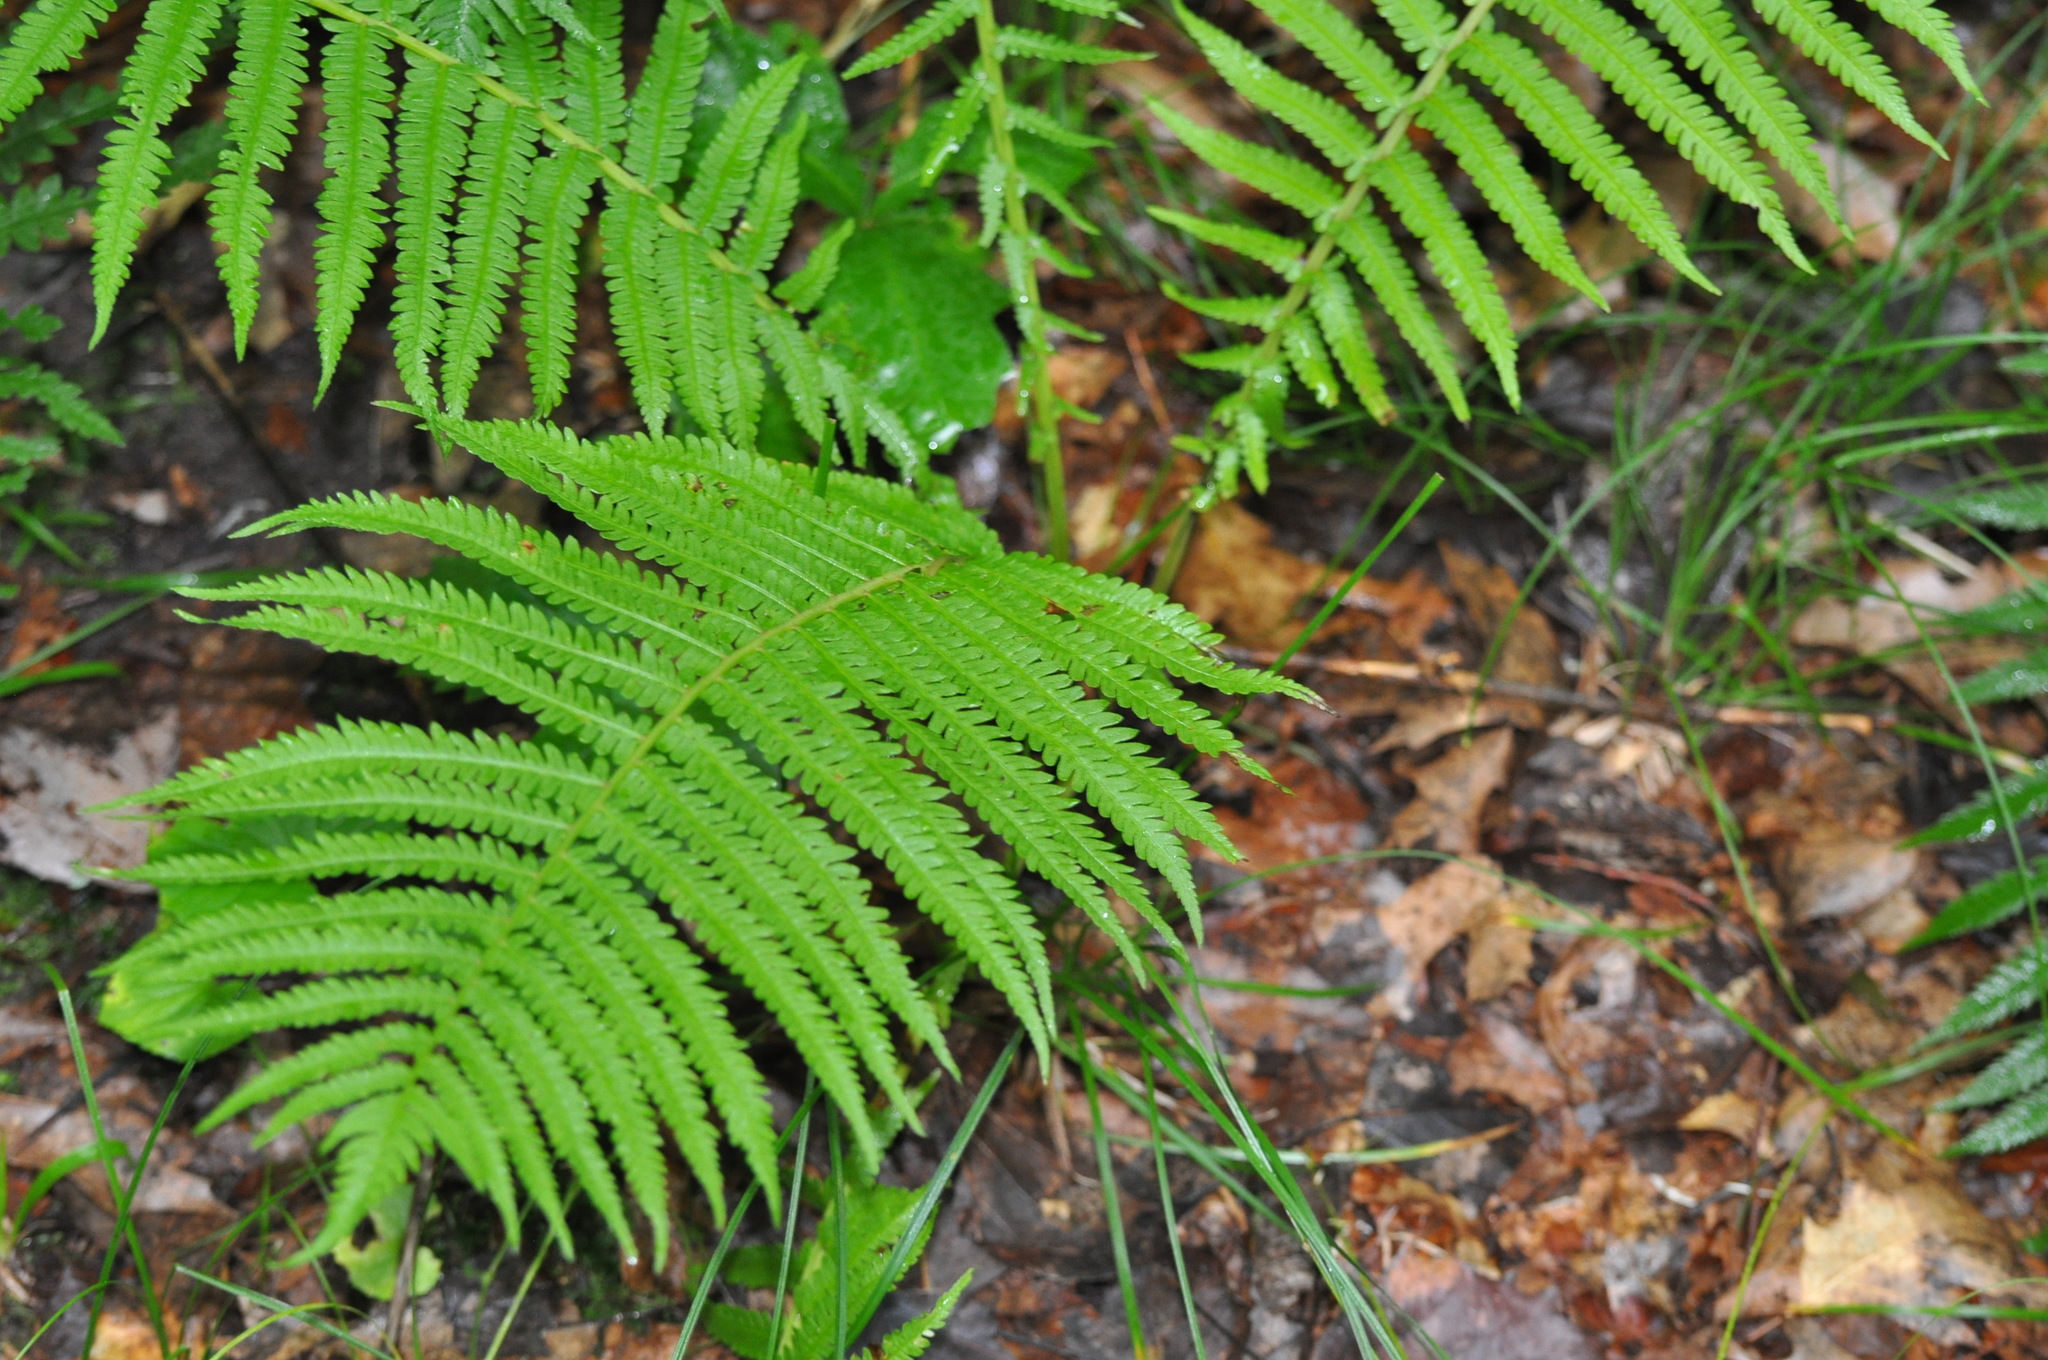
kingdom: Plantae
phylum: Tracheophyta
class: Polypodiopsida
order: Polypodiales
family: Onocleaceae
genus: Matteuccia
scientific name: Matteuccia struthiopteris
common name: Ostrich fern
